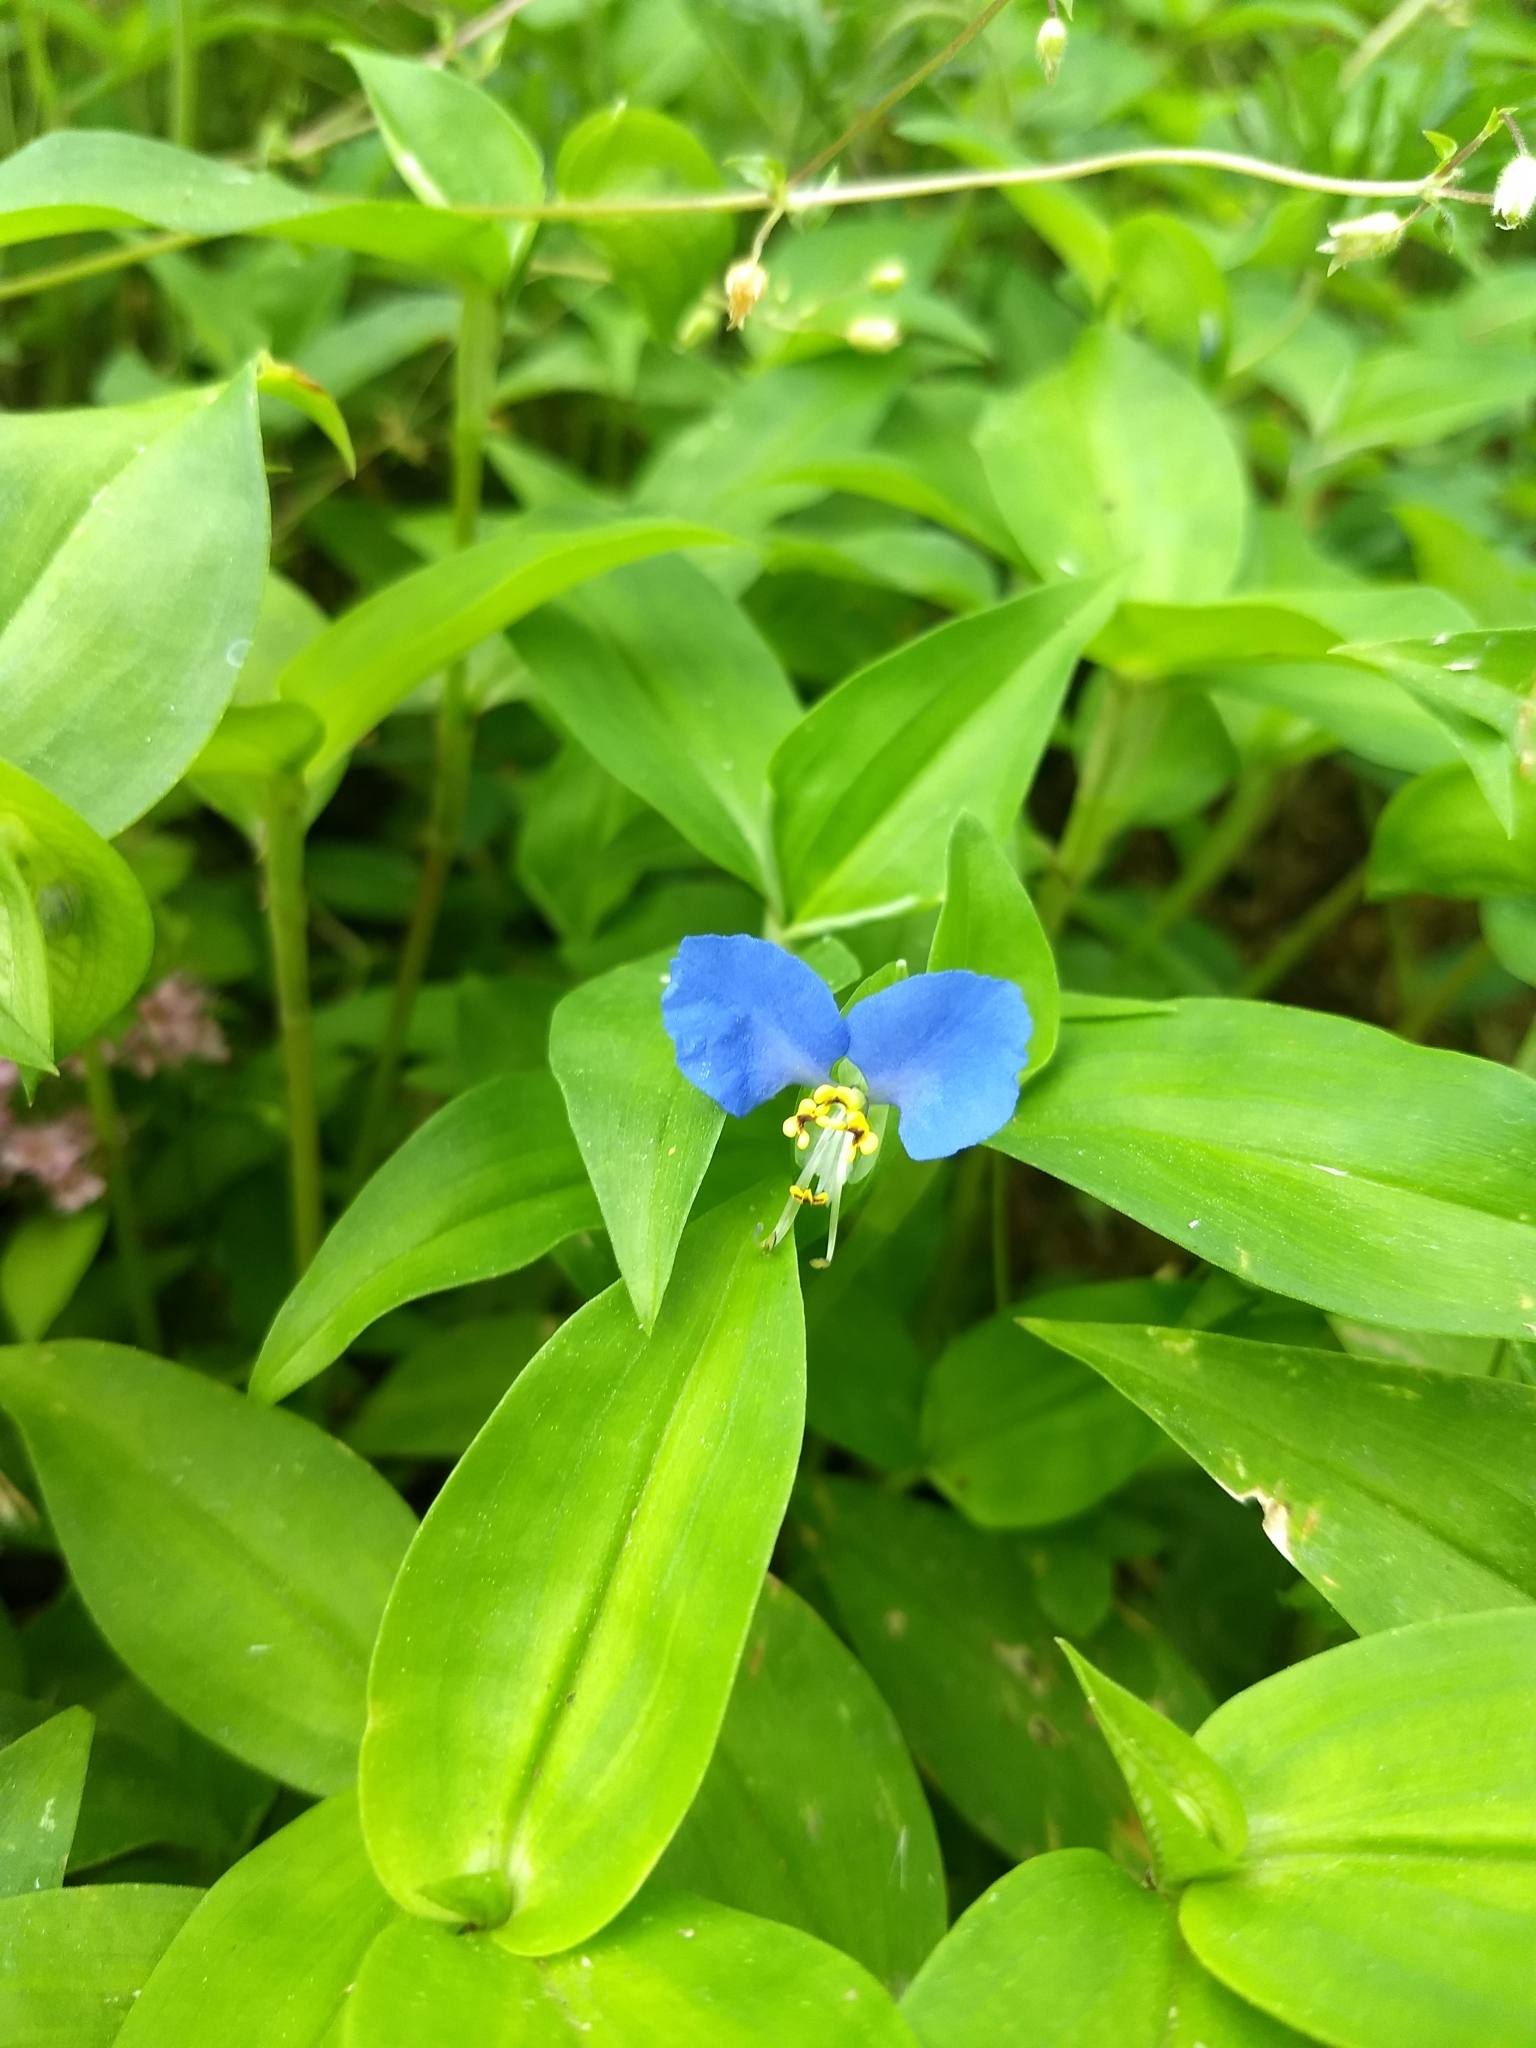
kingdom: Plantae
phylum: Tracheophyta
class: Liliopsida
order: Commelinales
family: Commelinaceae
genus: Commelina
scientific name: Commelina communis
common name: Asiatic dayflower
